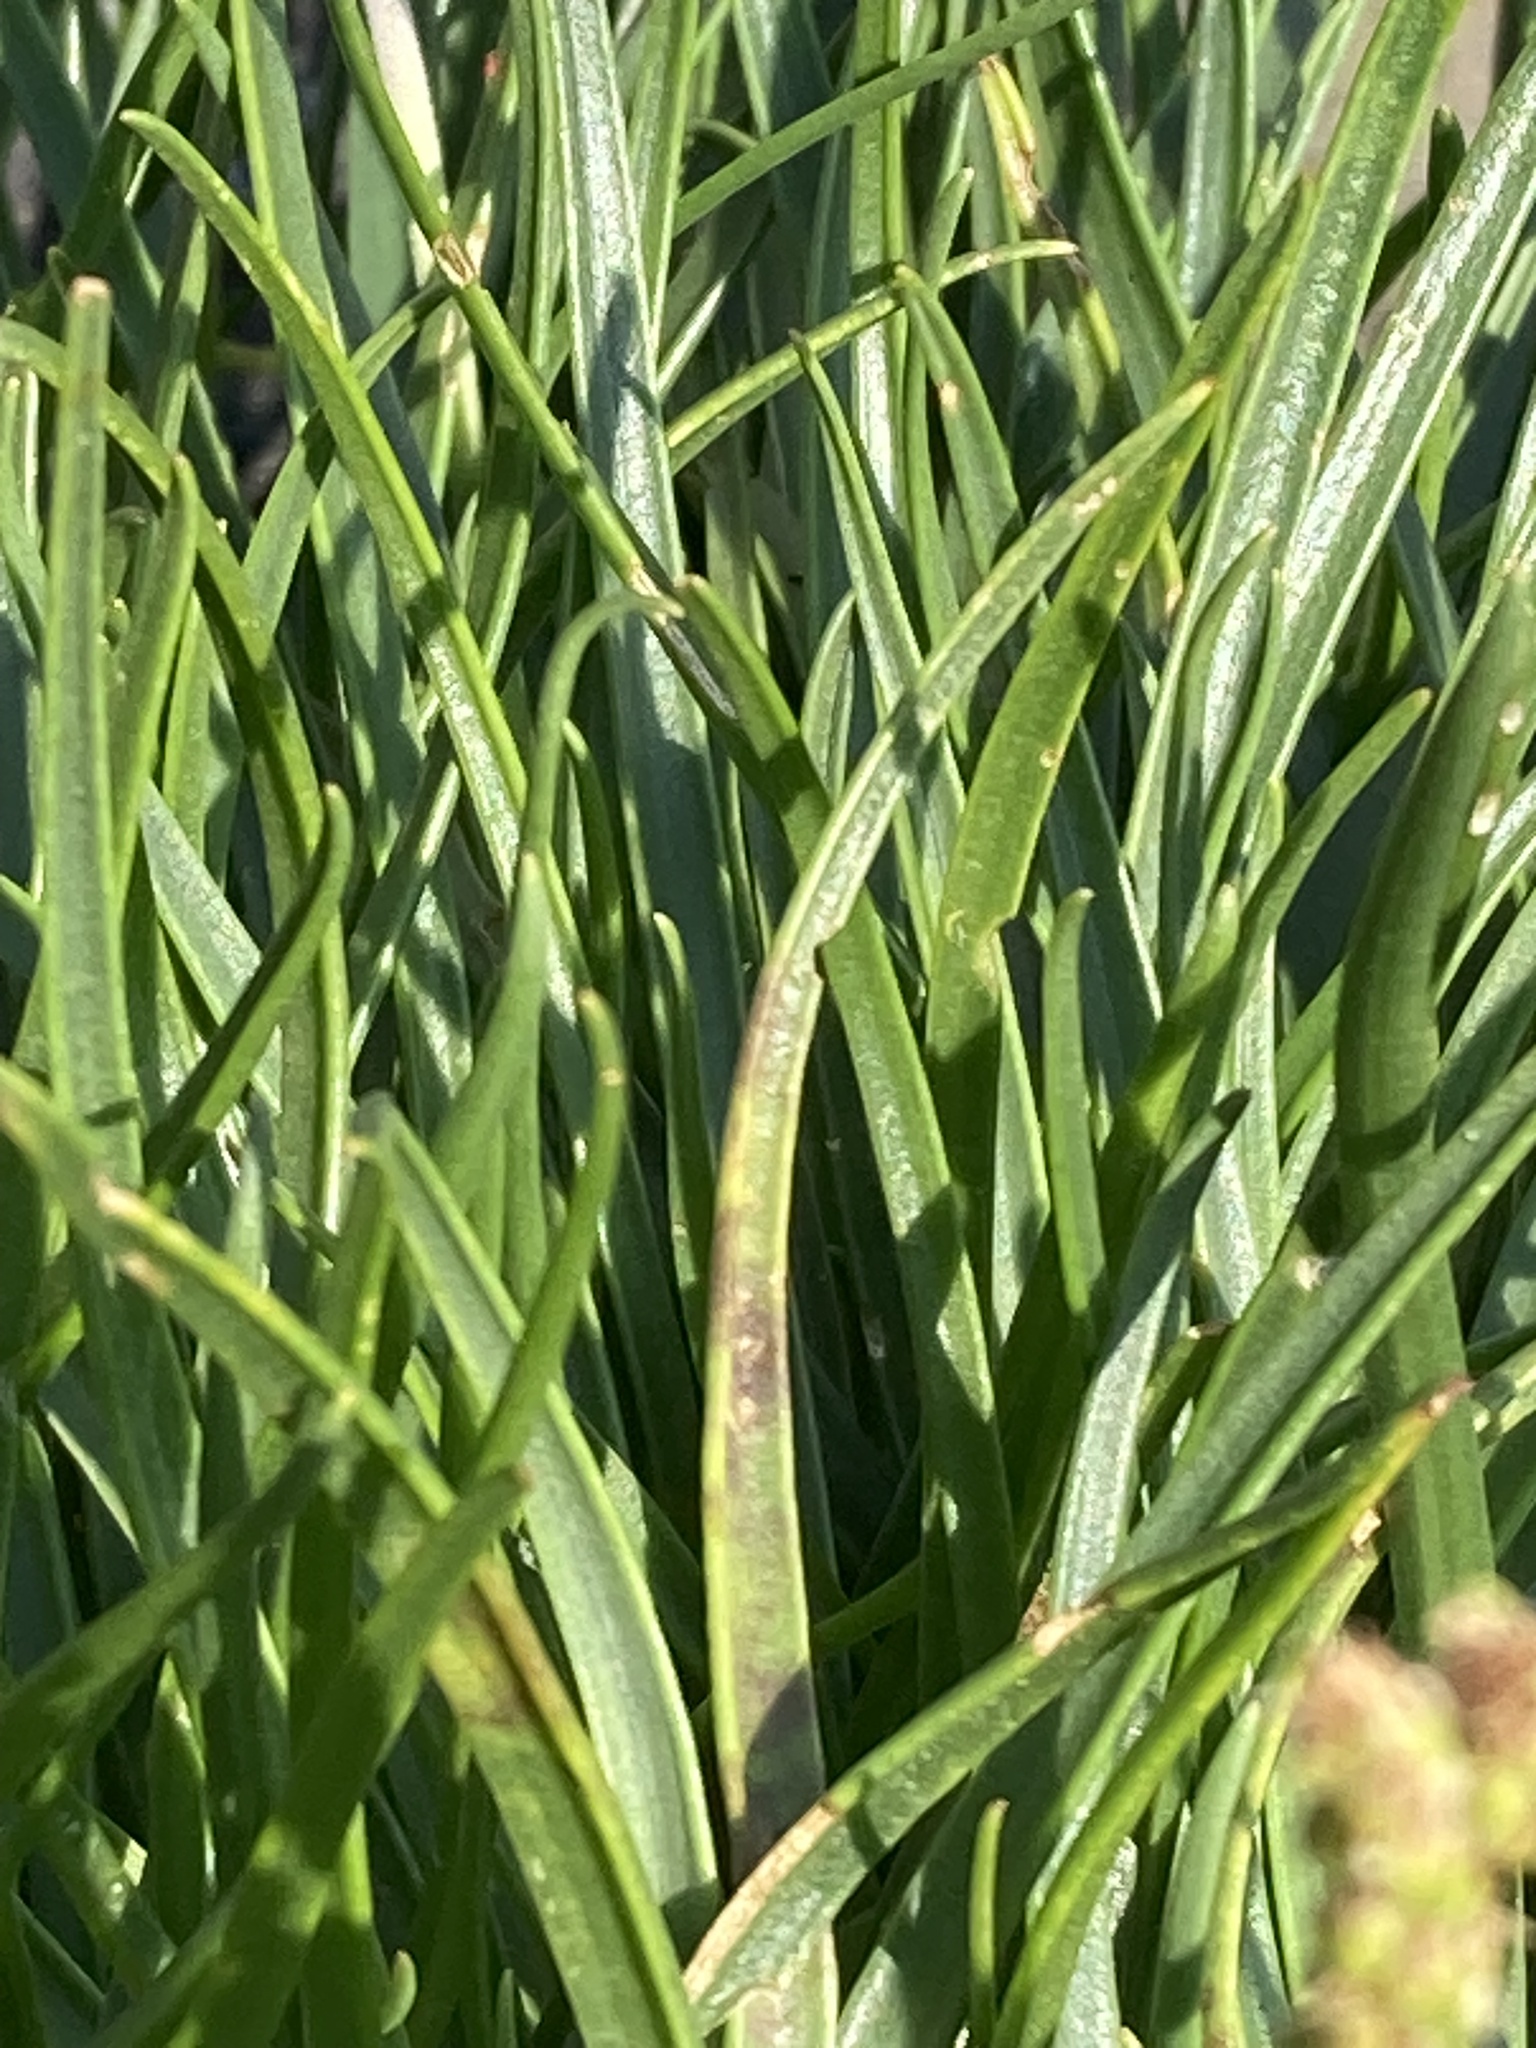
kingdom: Plantae
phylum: Tracheophyta
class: Magnoliopsida
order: Lamiales
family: Plantaginaceae
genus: Plantago
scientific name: Plantago maritima
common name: Sea plantain
